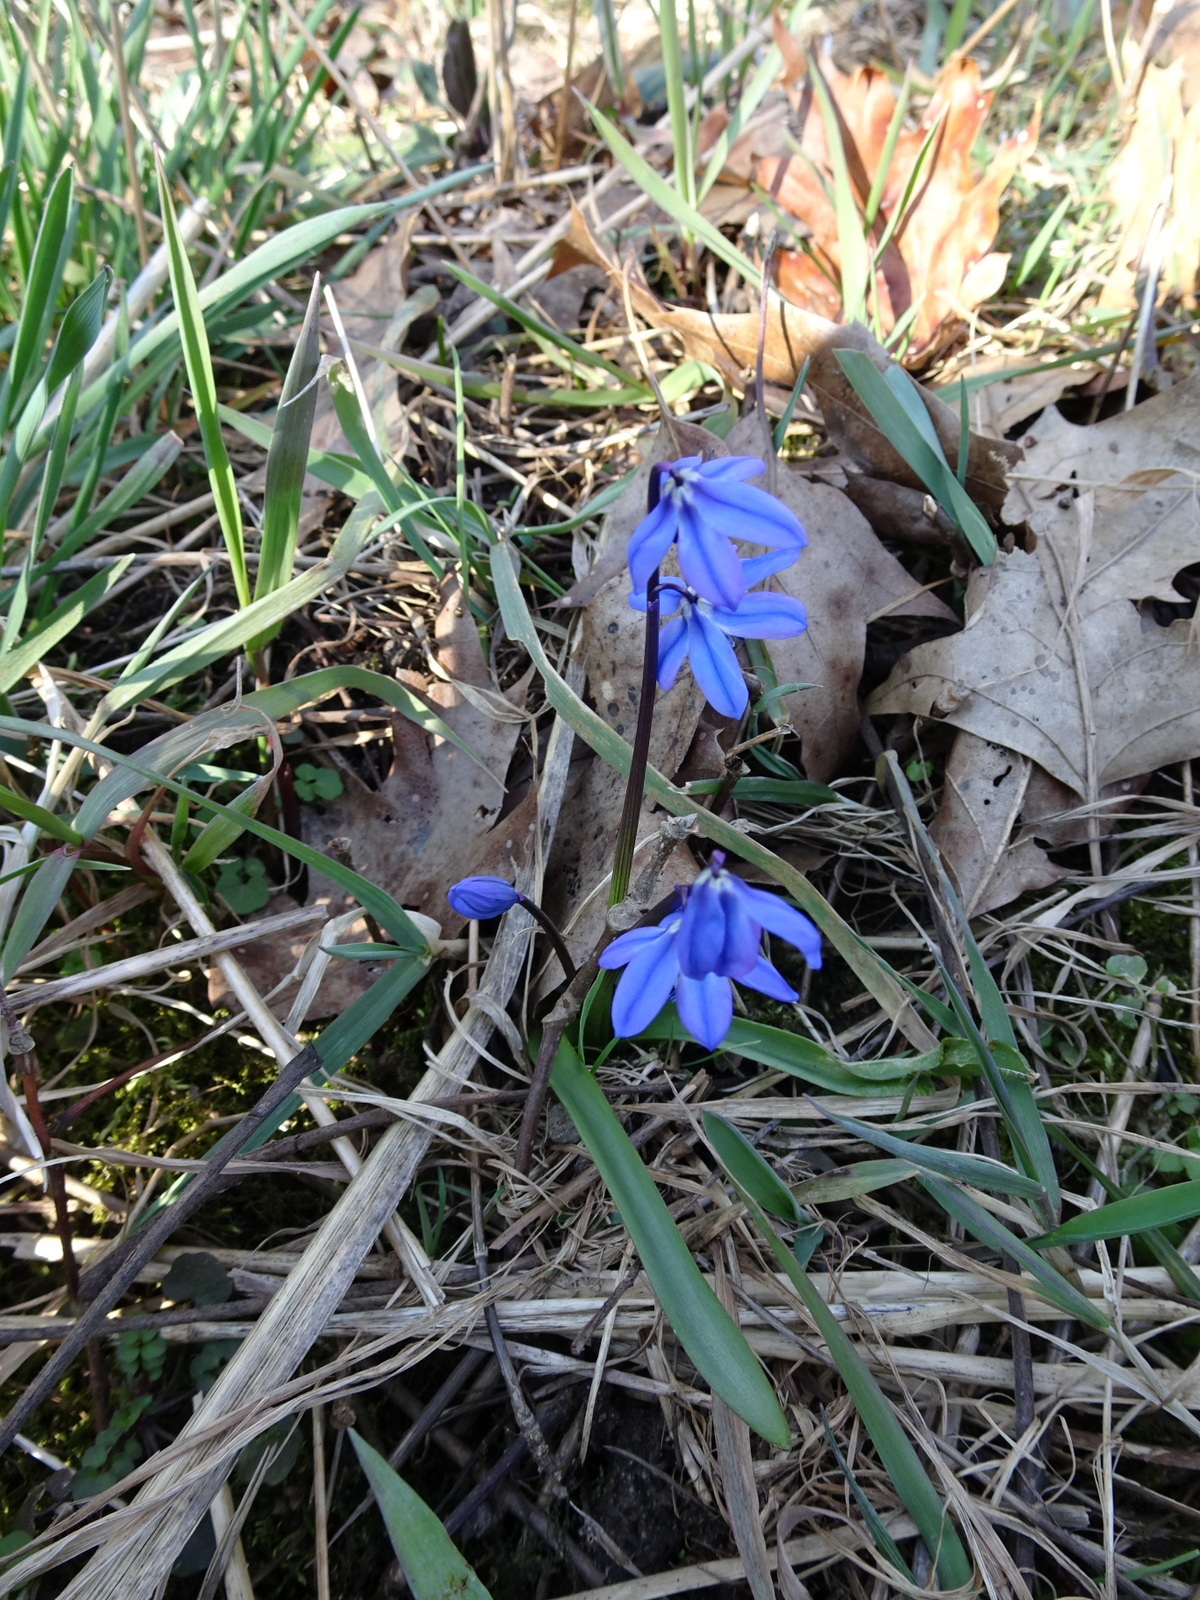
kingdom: Plantae
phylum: Tracheophyta
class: Liliopsida
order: Asparagales
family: Asparagaceae
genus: Scilla
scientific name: Scilla siberica
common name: Siberian squill
